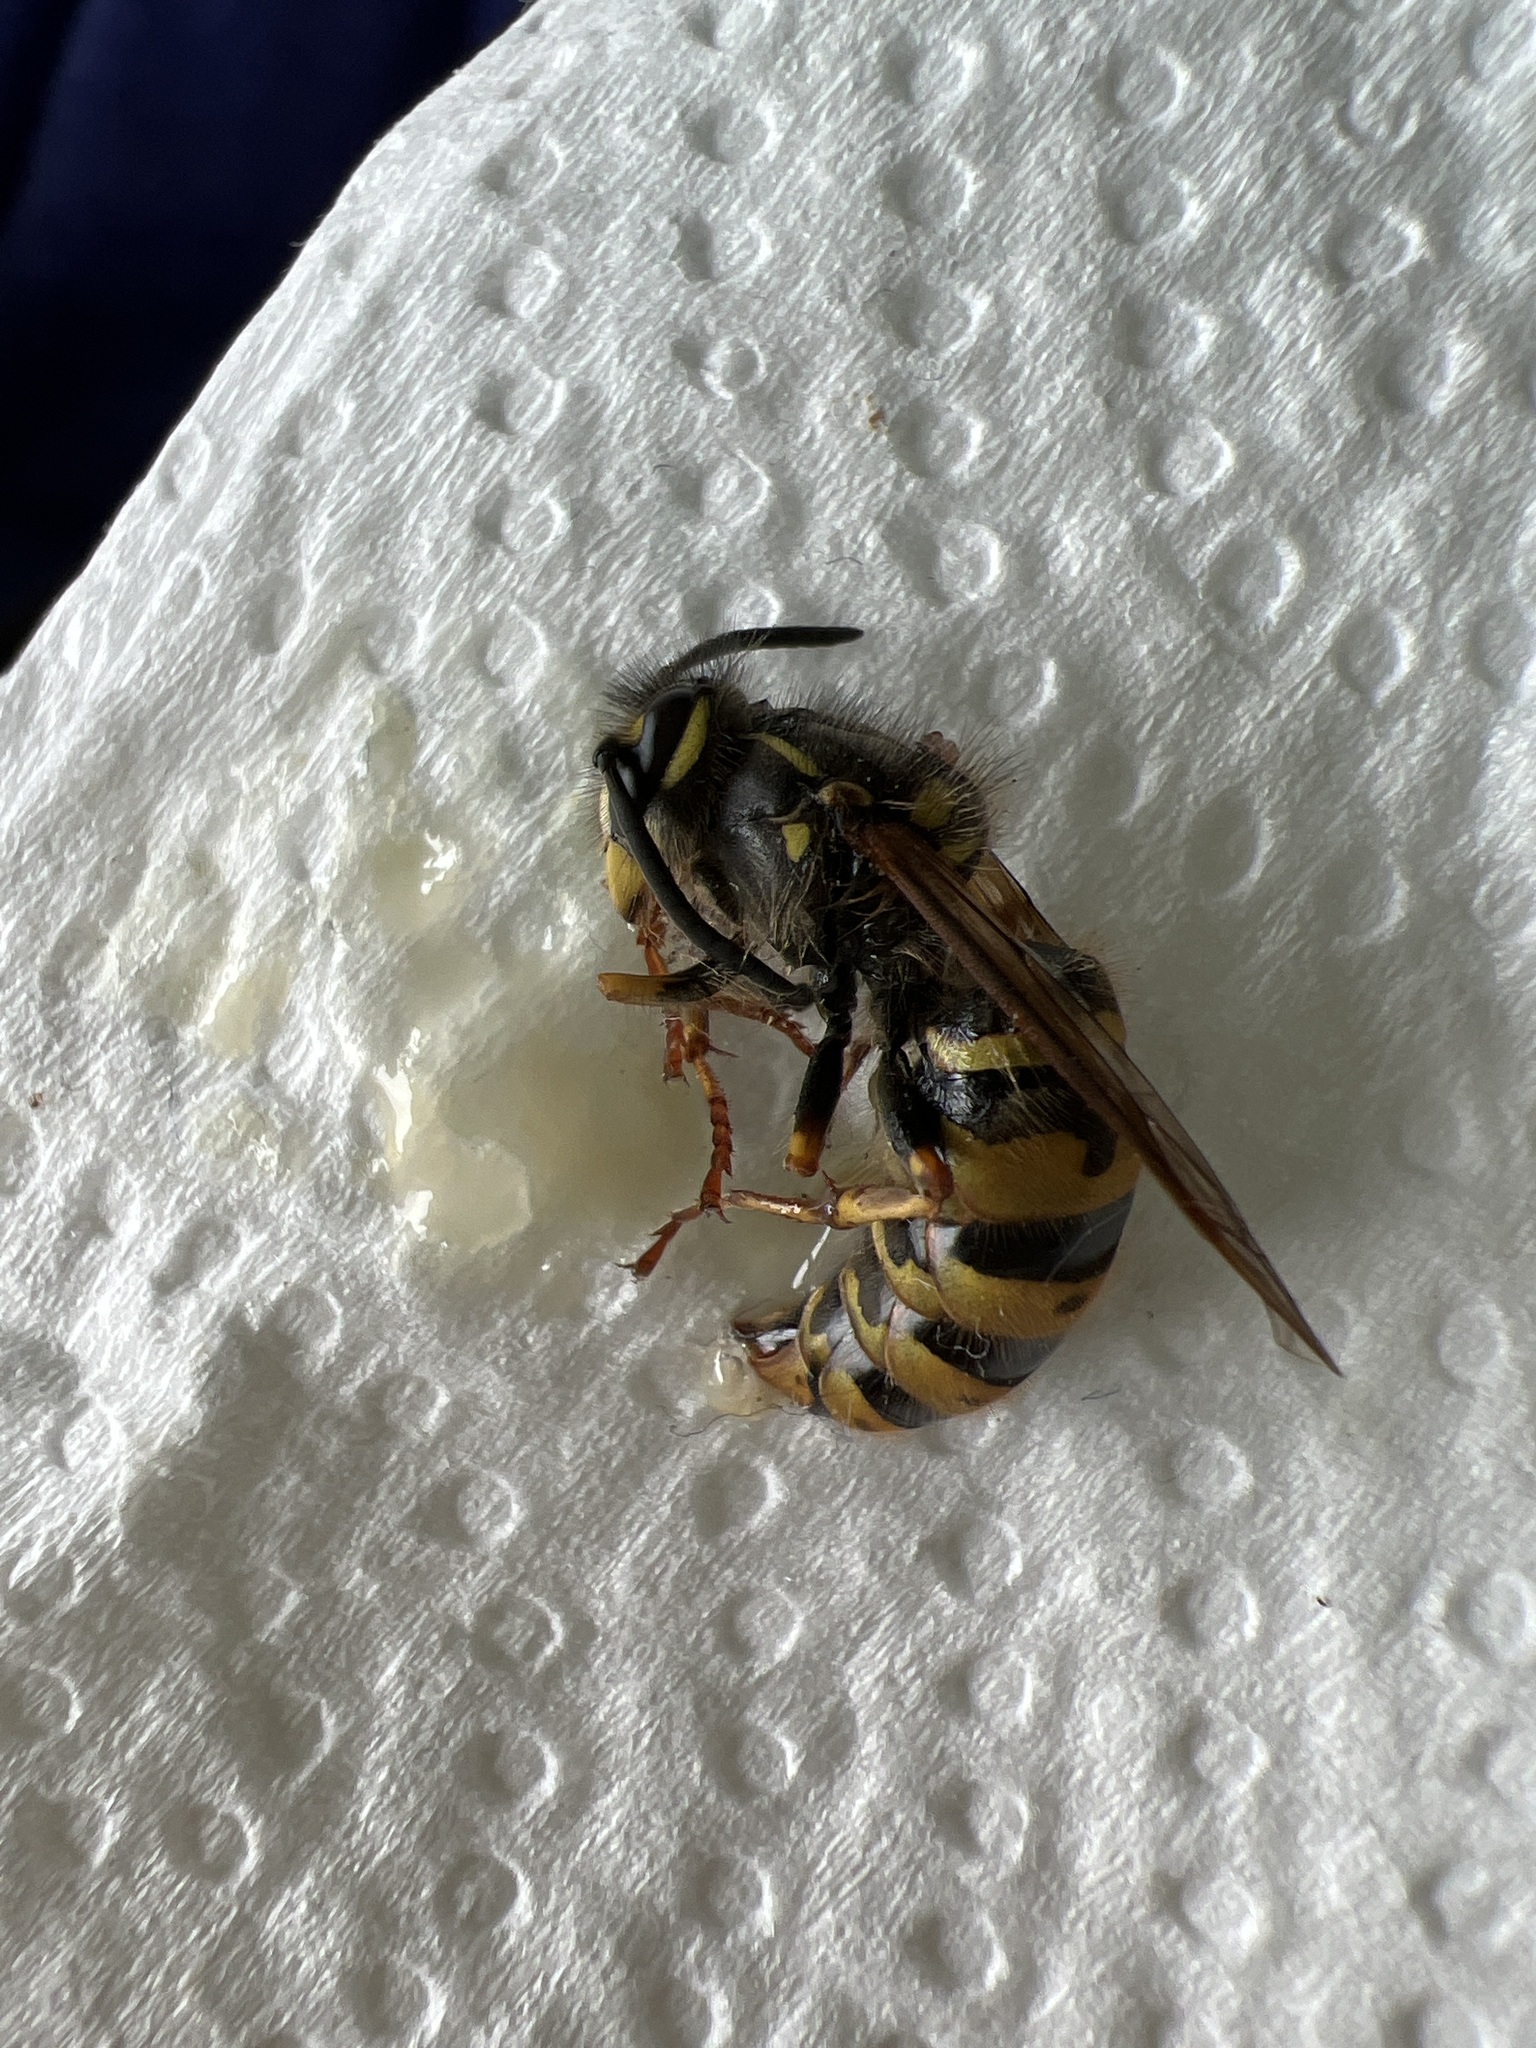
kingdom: Animalia
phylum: Arthropoda
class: Insecta
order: Hymenoptera
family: Vespidae
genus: Vespula
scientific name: Vespula vulgaris
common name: Common wasp
